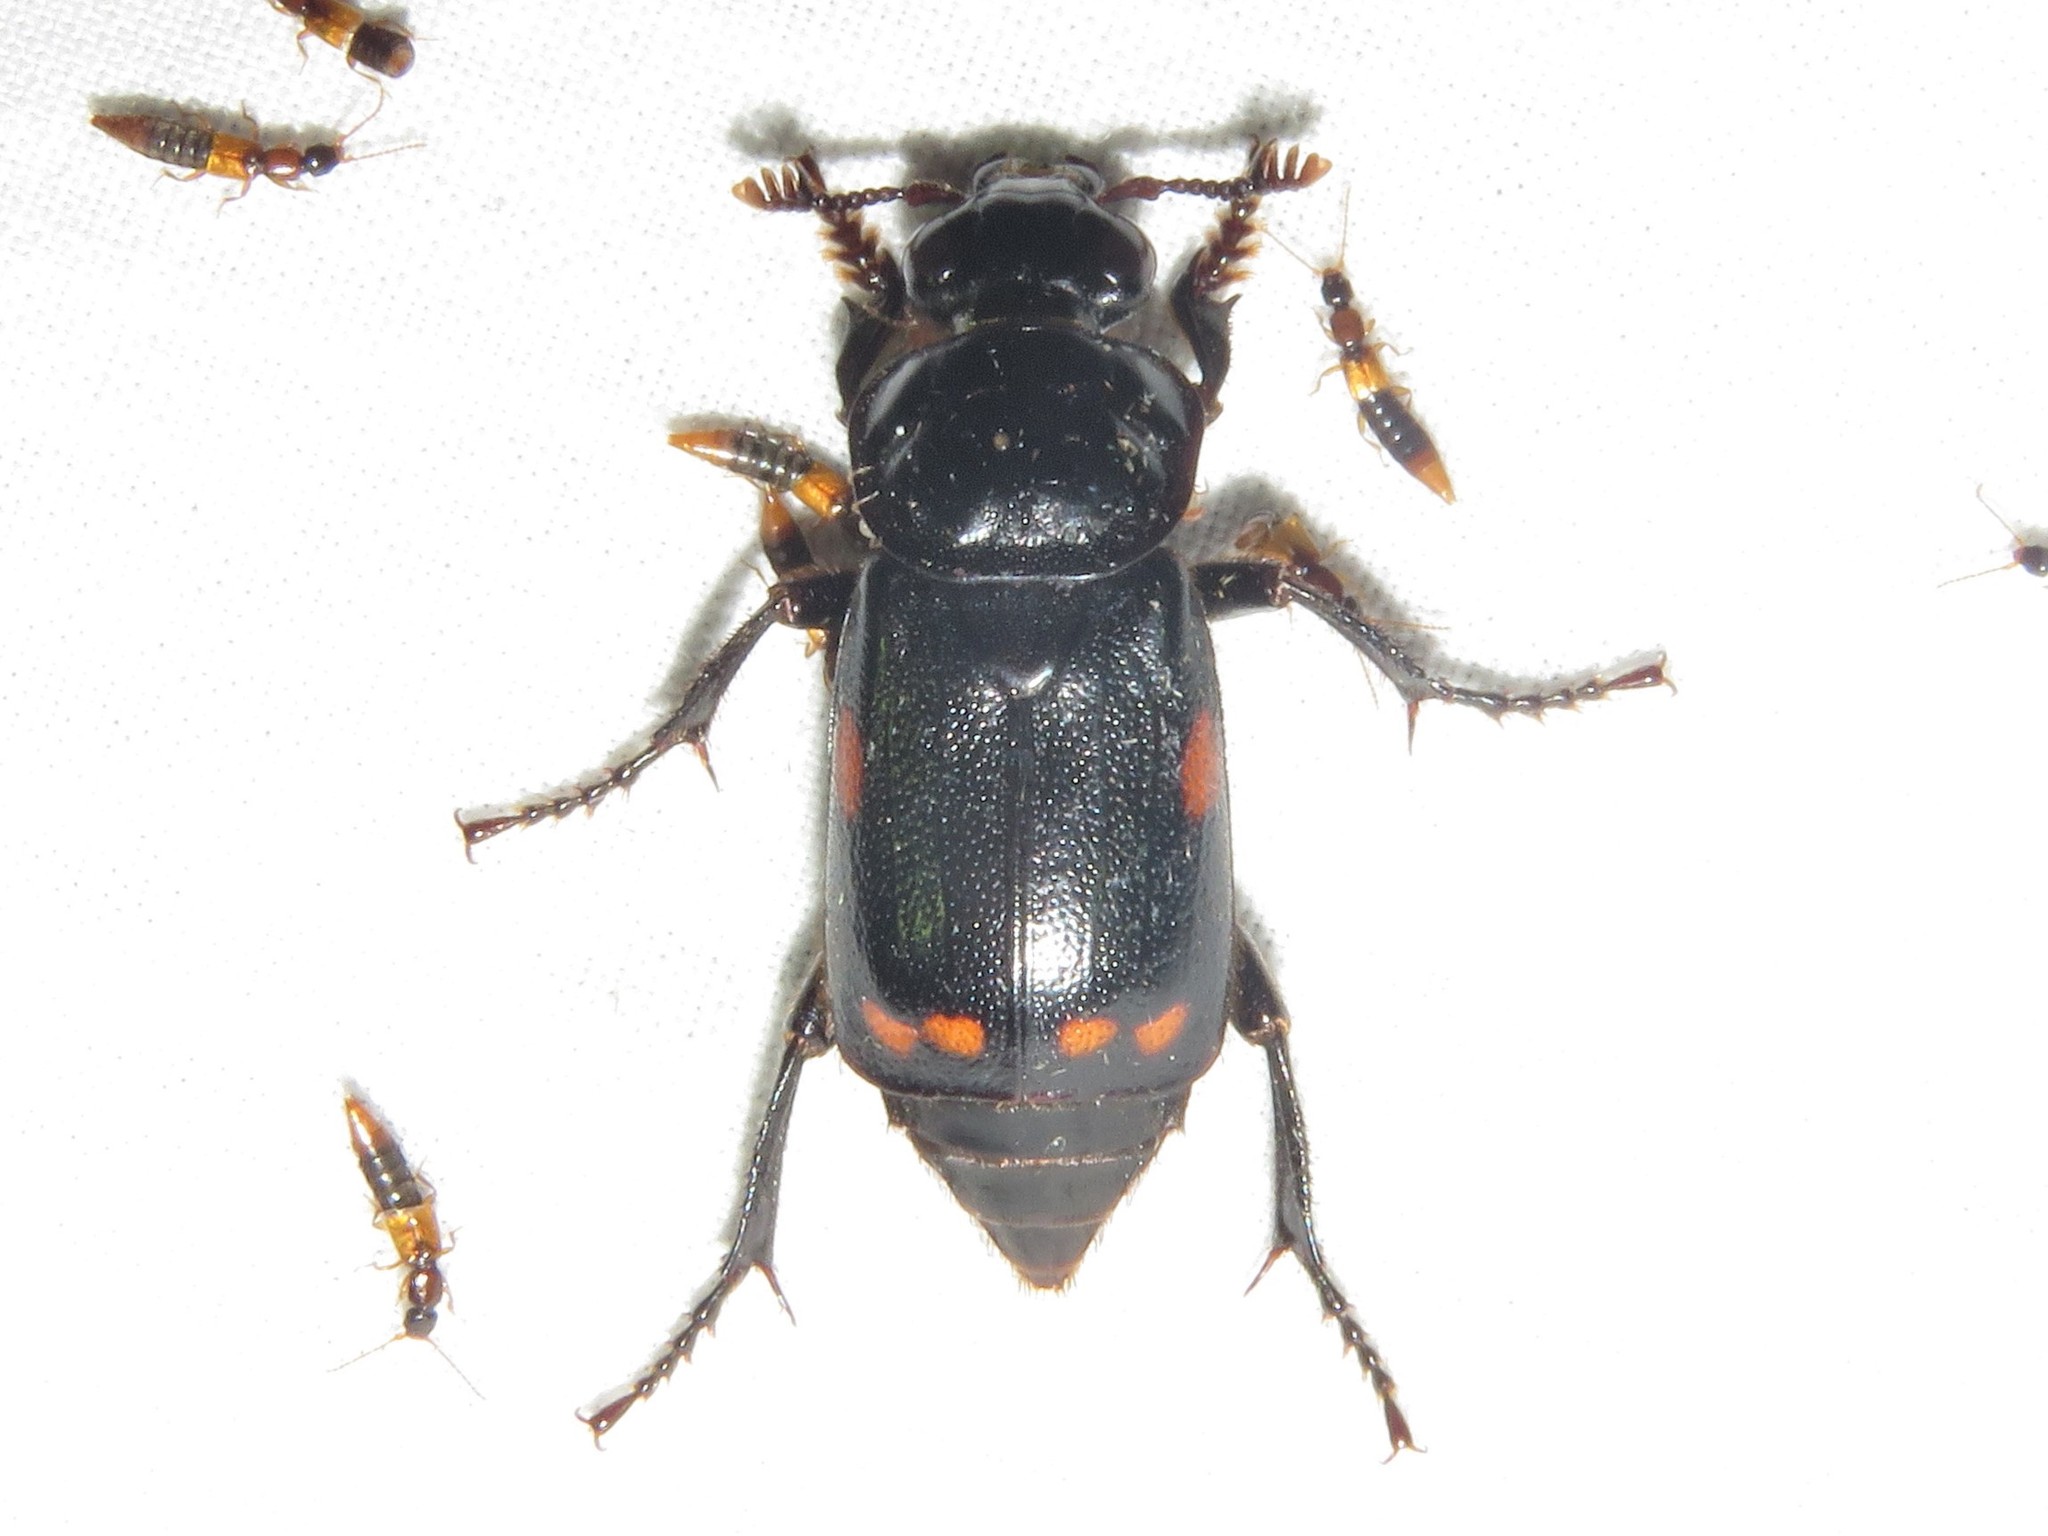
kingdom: Animalia
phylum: Arthropoda
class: Insecta
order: Coleoptera
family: Staphylinidae
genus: Nicrophorus
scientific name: Nicrophorus pustulatus
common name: Pustulated carrion beetle
